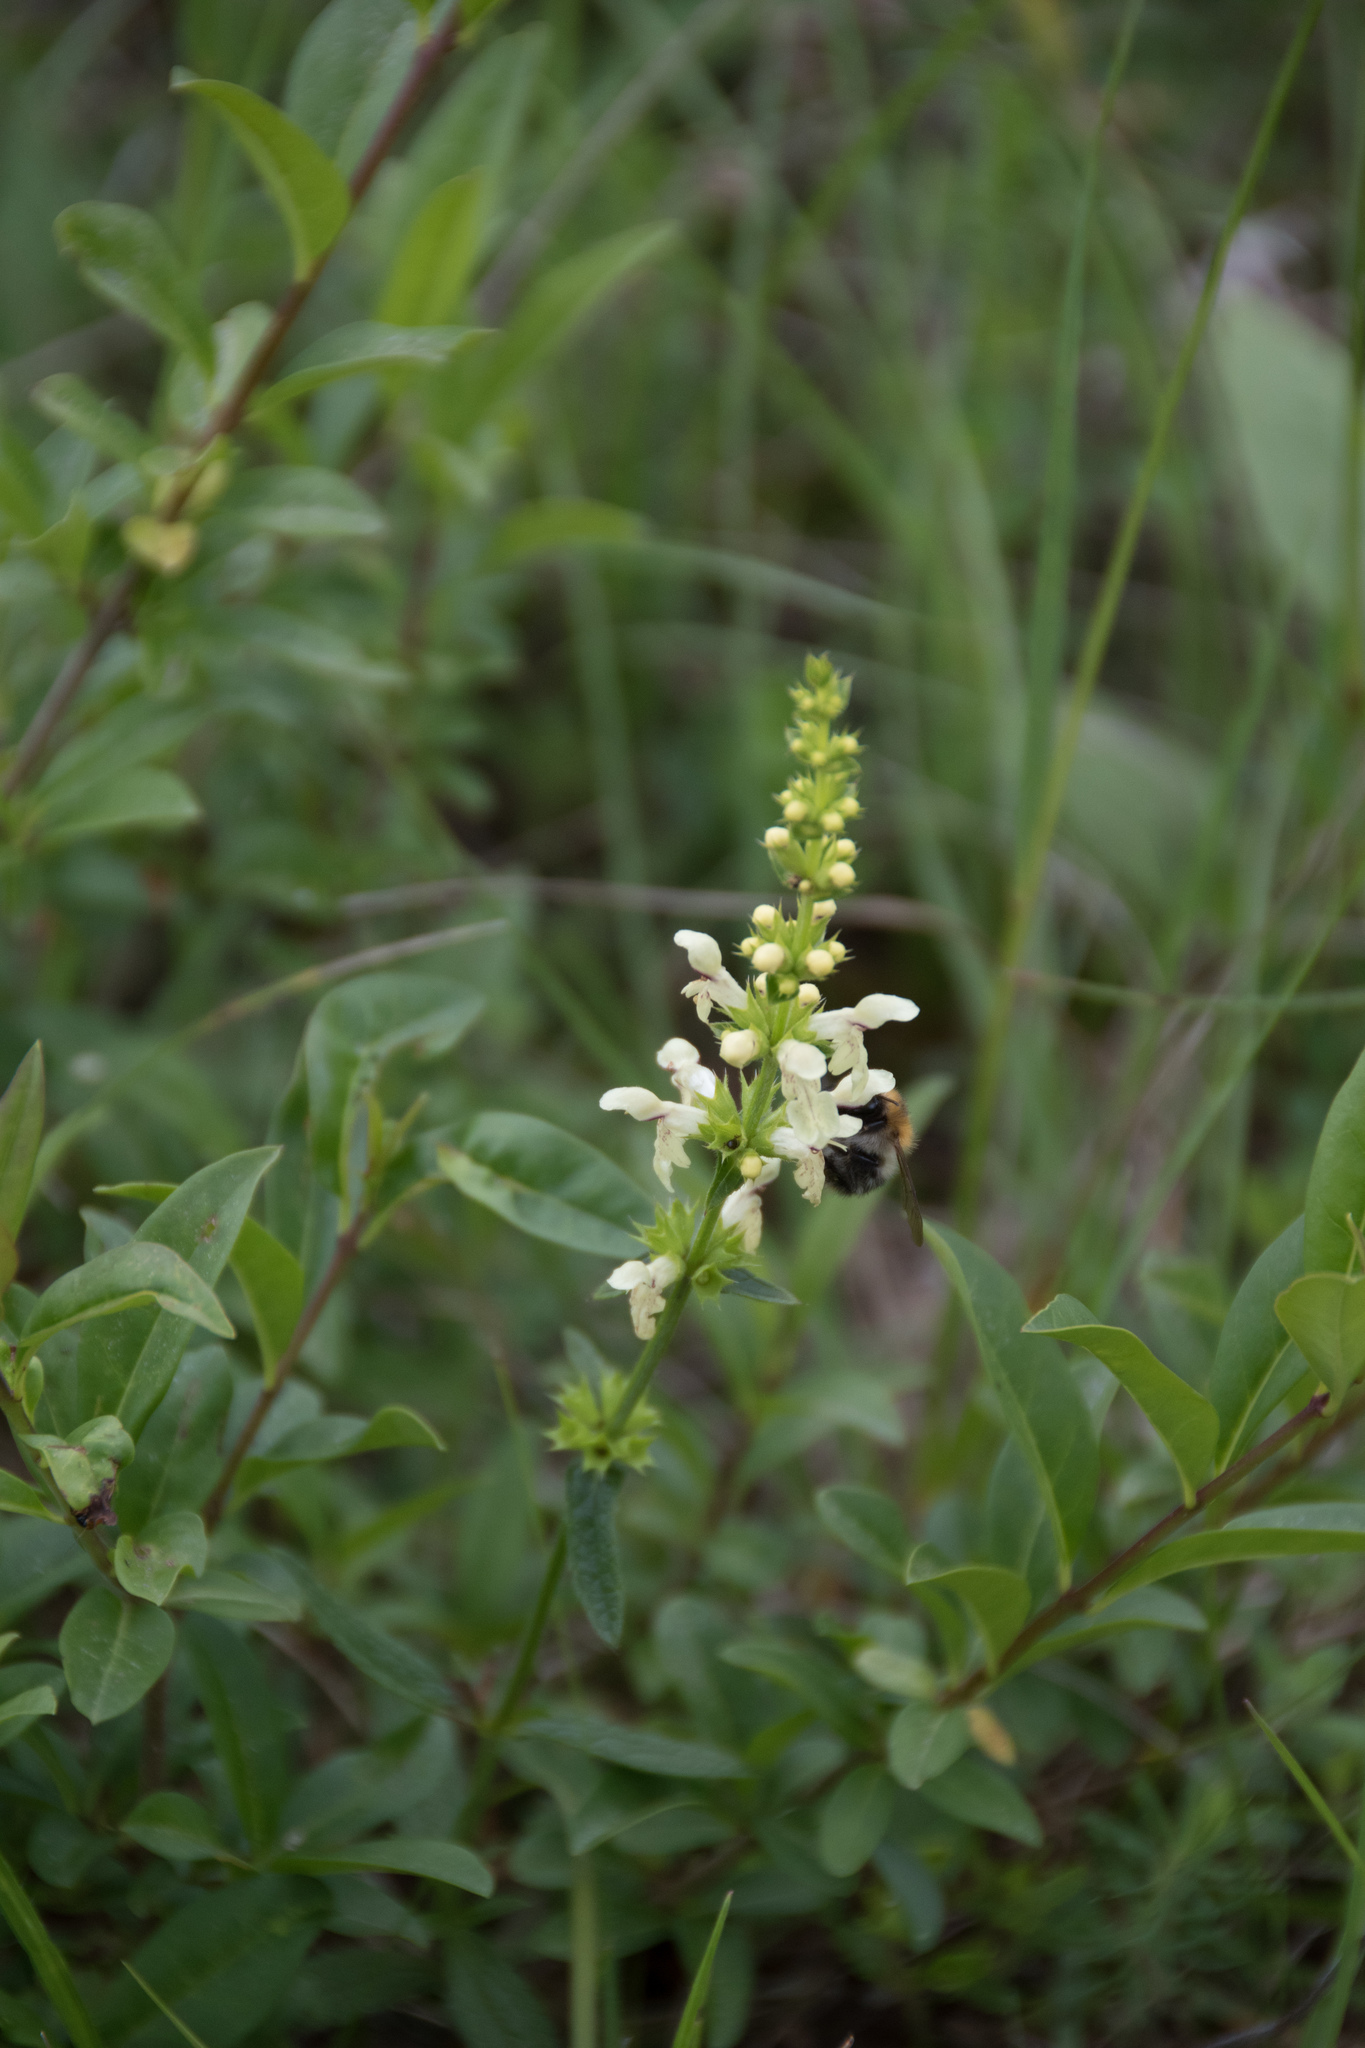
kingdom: Plantae
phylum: Tracheophyta
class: Magnoliopsida
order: Lamiales
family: Lamiaceae
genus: Stachys
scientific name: Stachys recta
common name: Perennial yellow-woundwort
